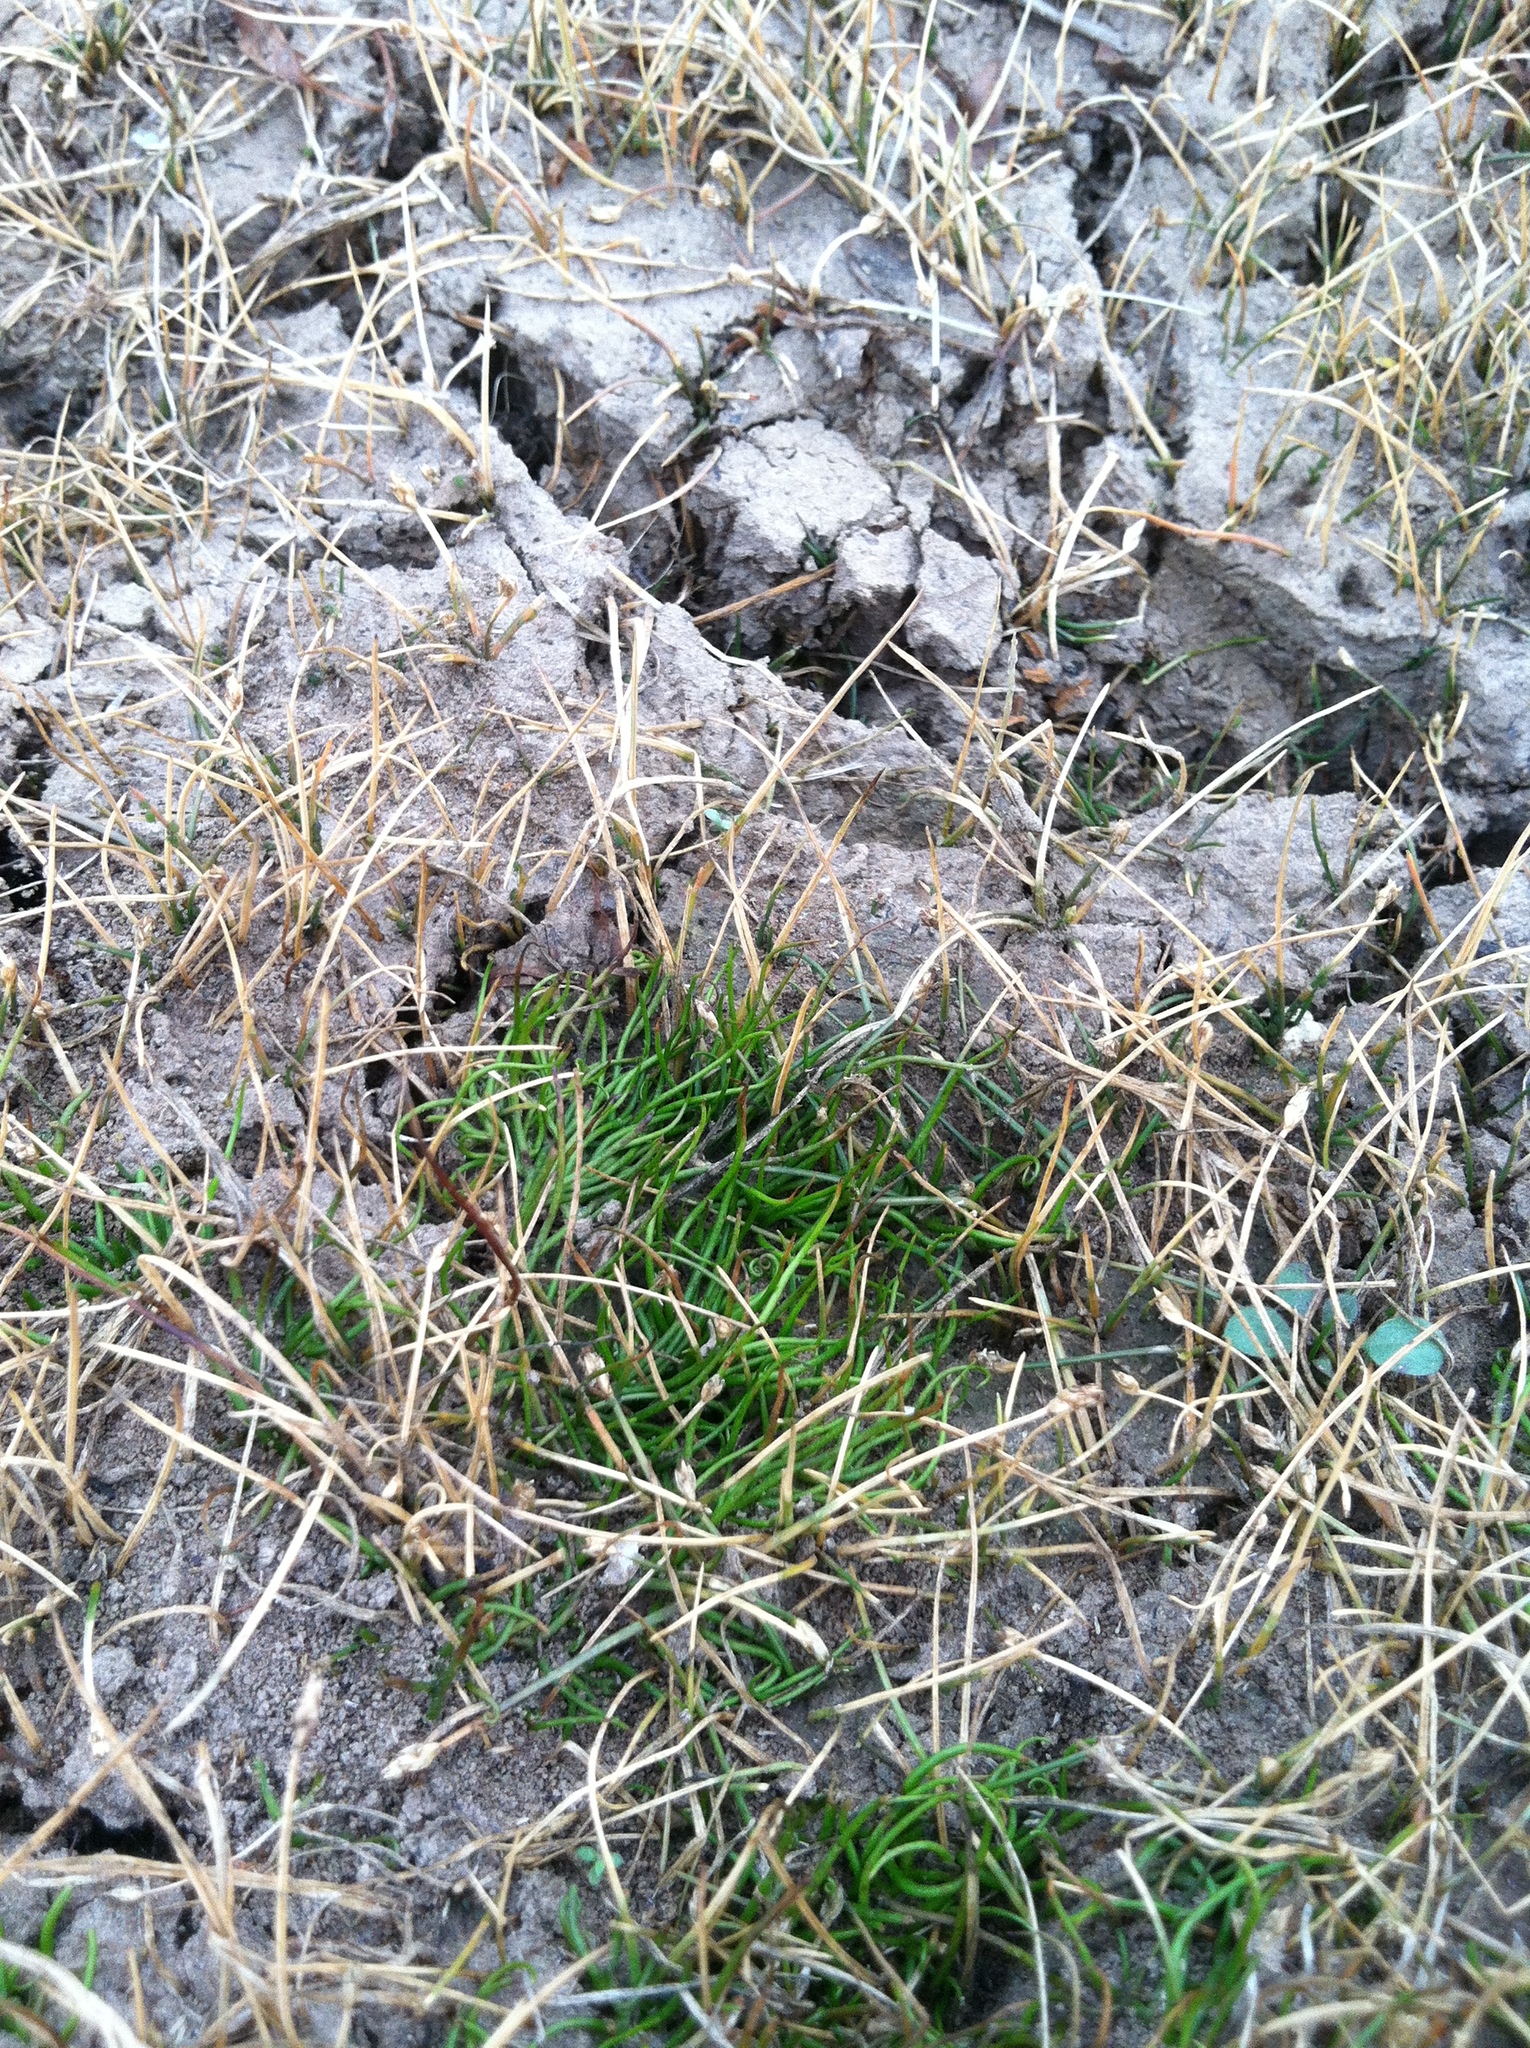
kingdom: Plantae
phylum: Tracheophyta
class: Polypodiopsida
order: Salviniales
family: Marsileaceae
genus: Pilularia
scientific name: Pilularia americana
